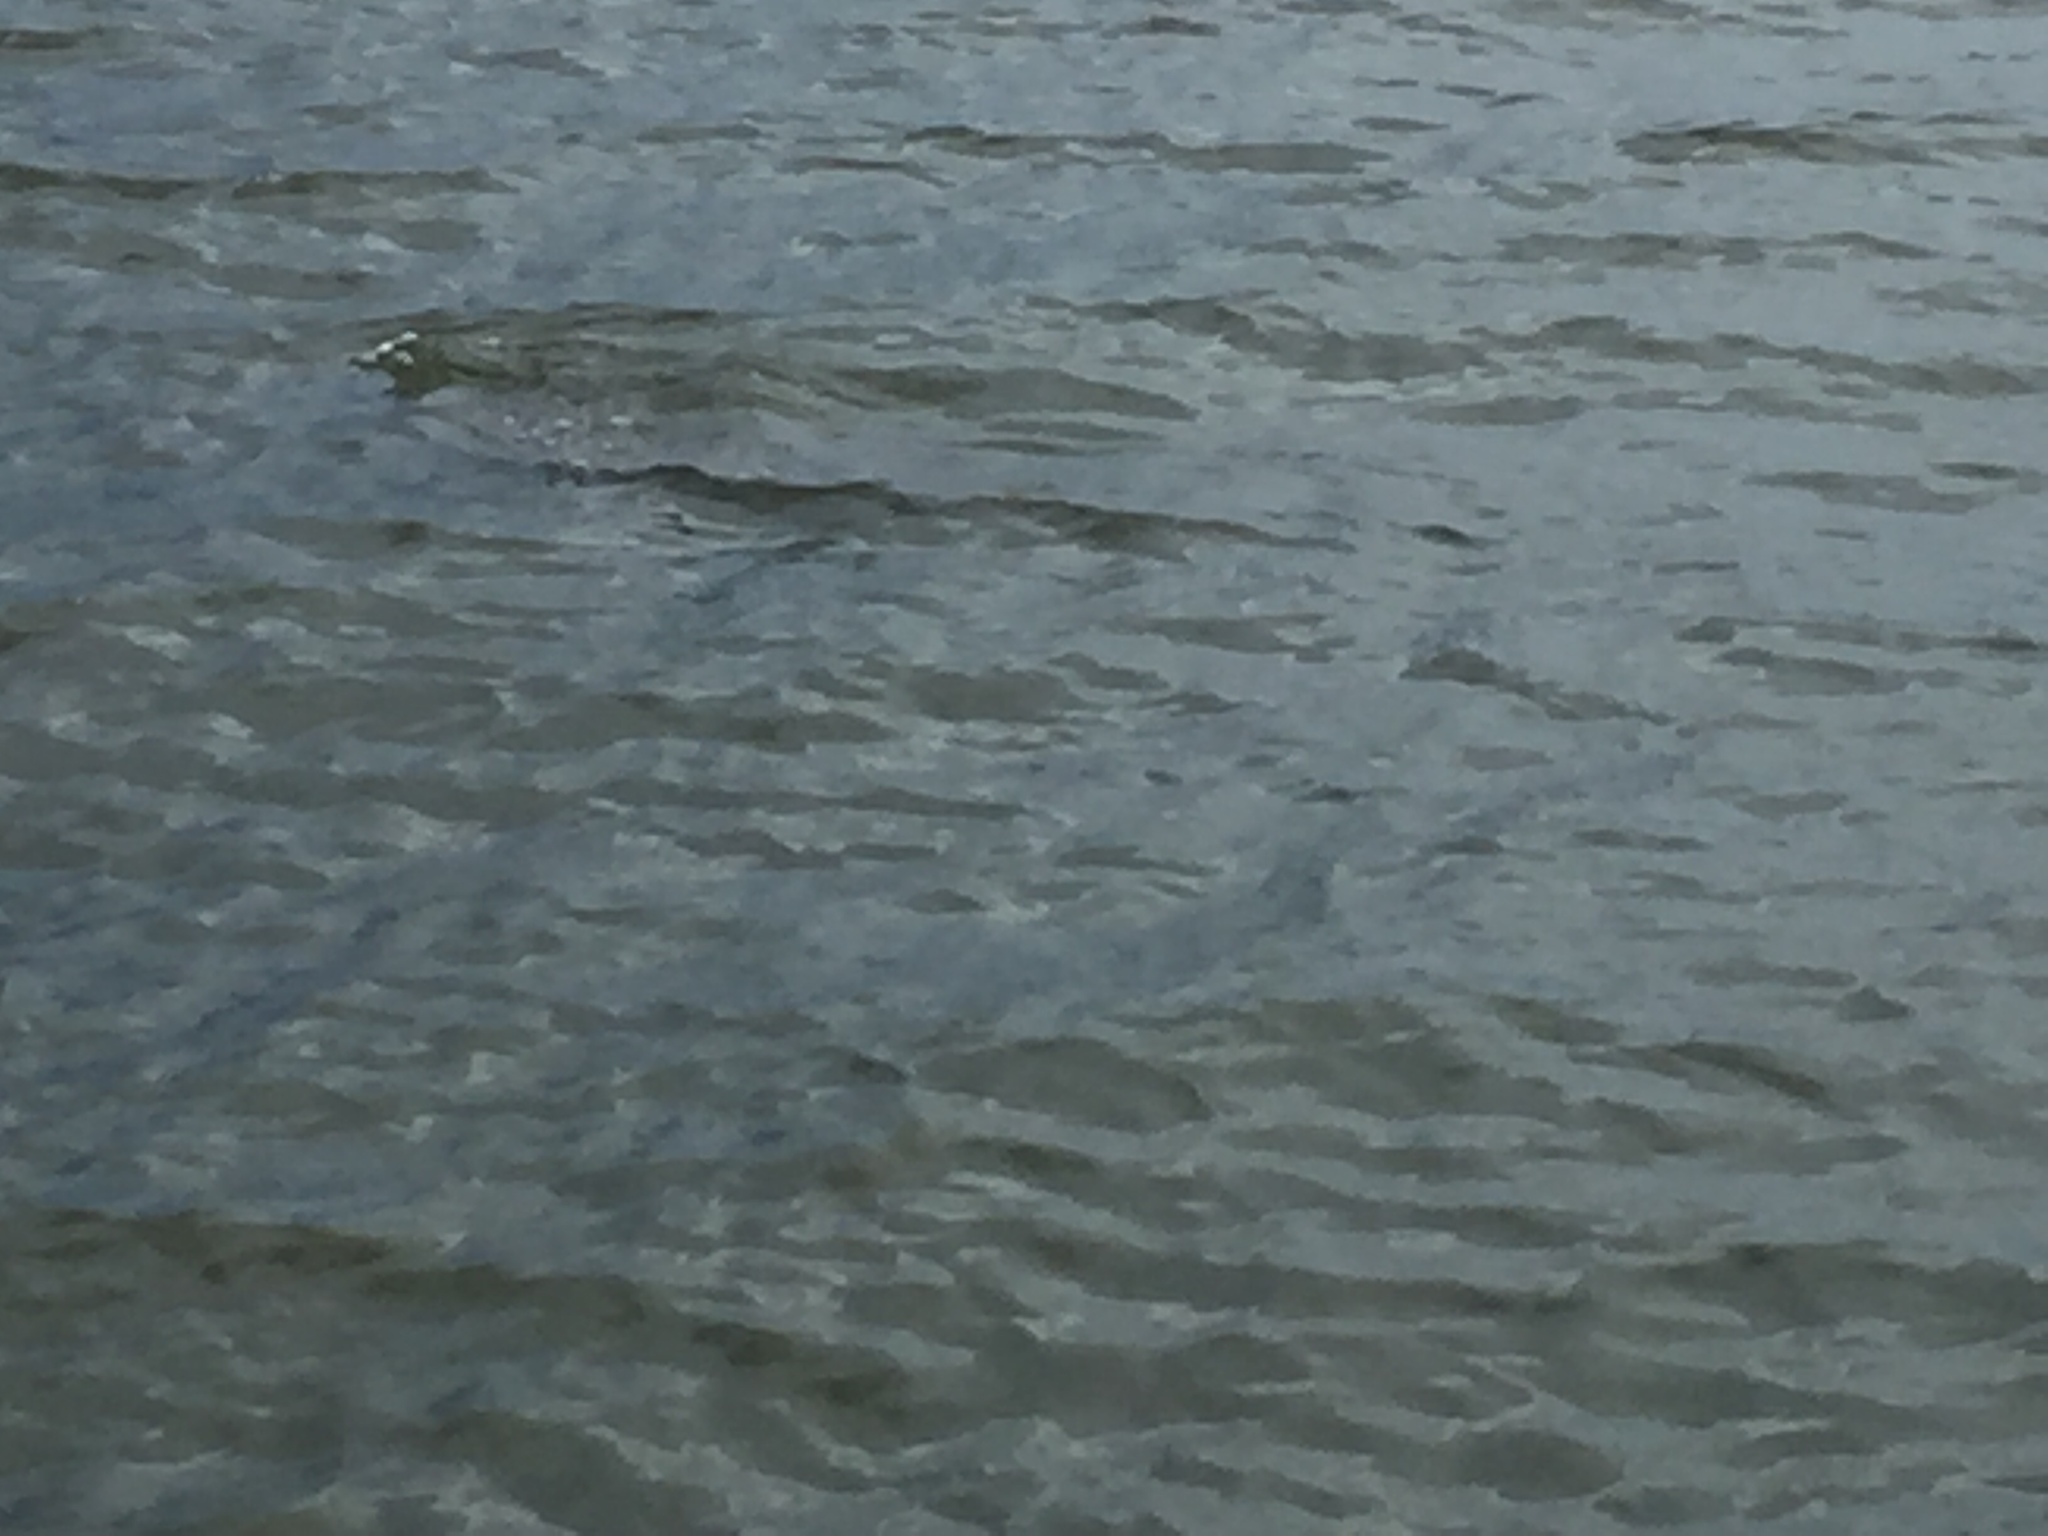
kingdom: Animalia
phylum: Chordata
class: Mammalia
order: Sirenia
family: Trichechidae
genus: Trichechus
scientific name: Trichechus manatus
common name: West indian manatee
